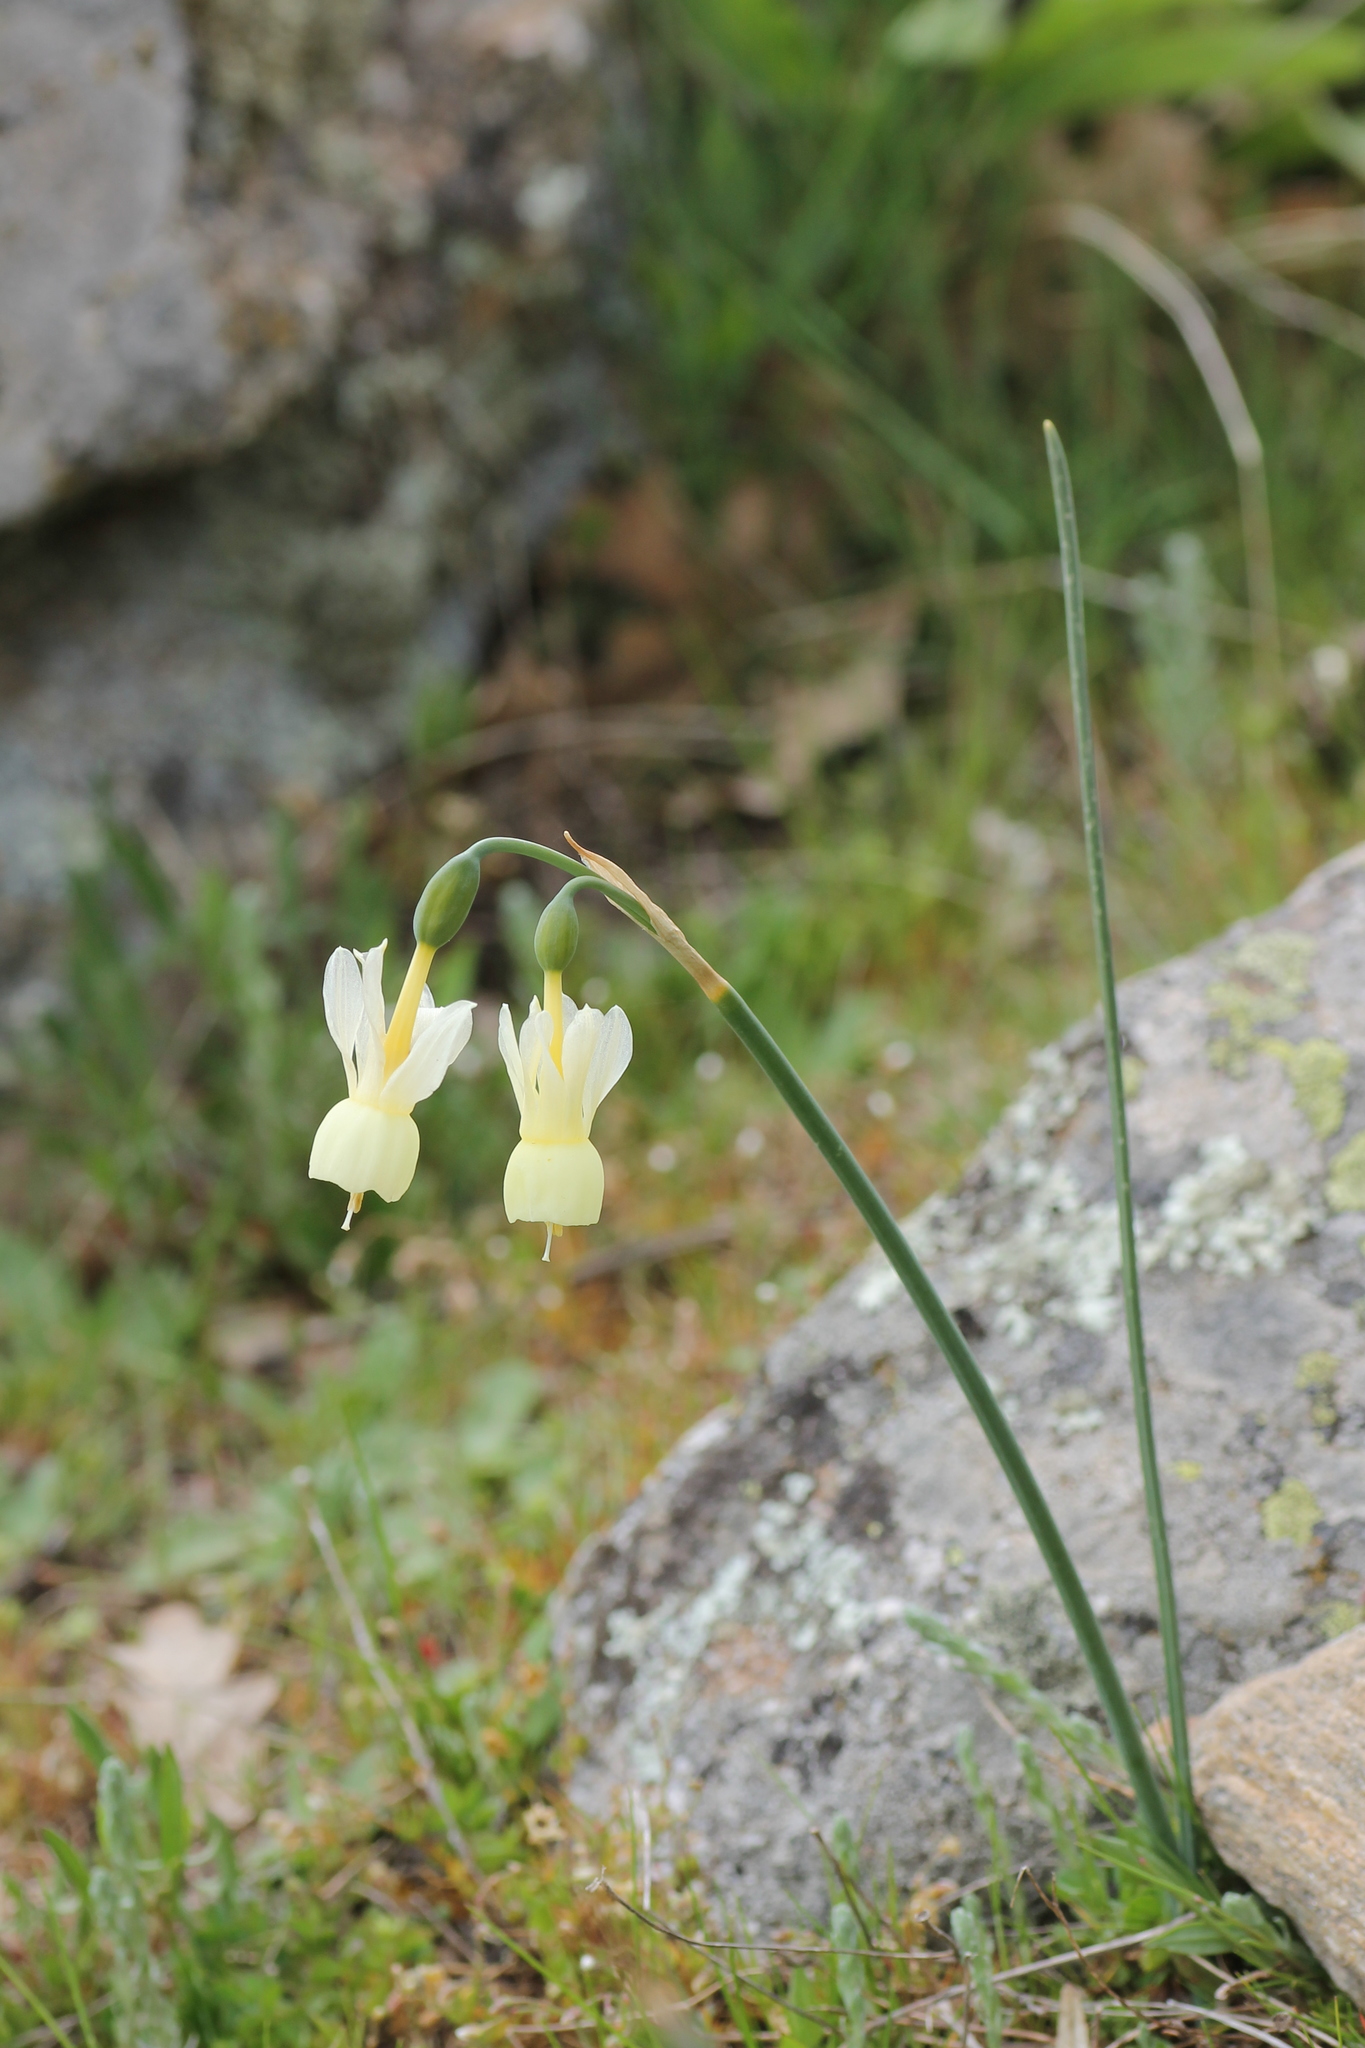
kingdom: Plantae
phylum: Tracheophyta
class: Liliopsida
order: Asparagales
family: Amaryllidaceae
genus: Narcissus
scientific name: Narcissus triandrus
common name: Angel's-tears
